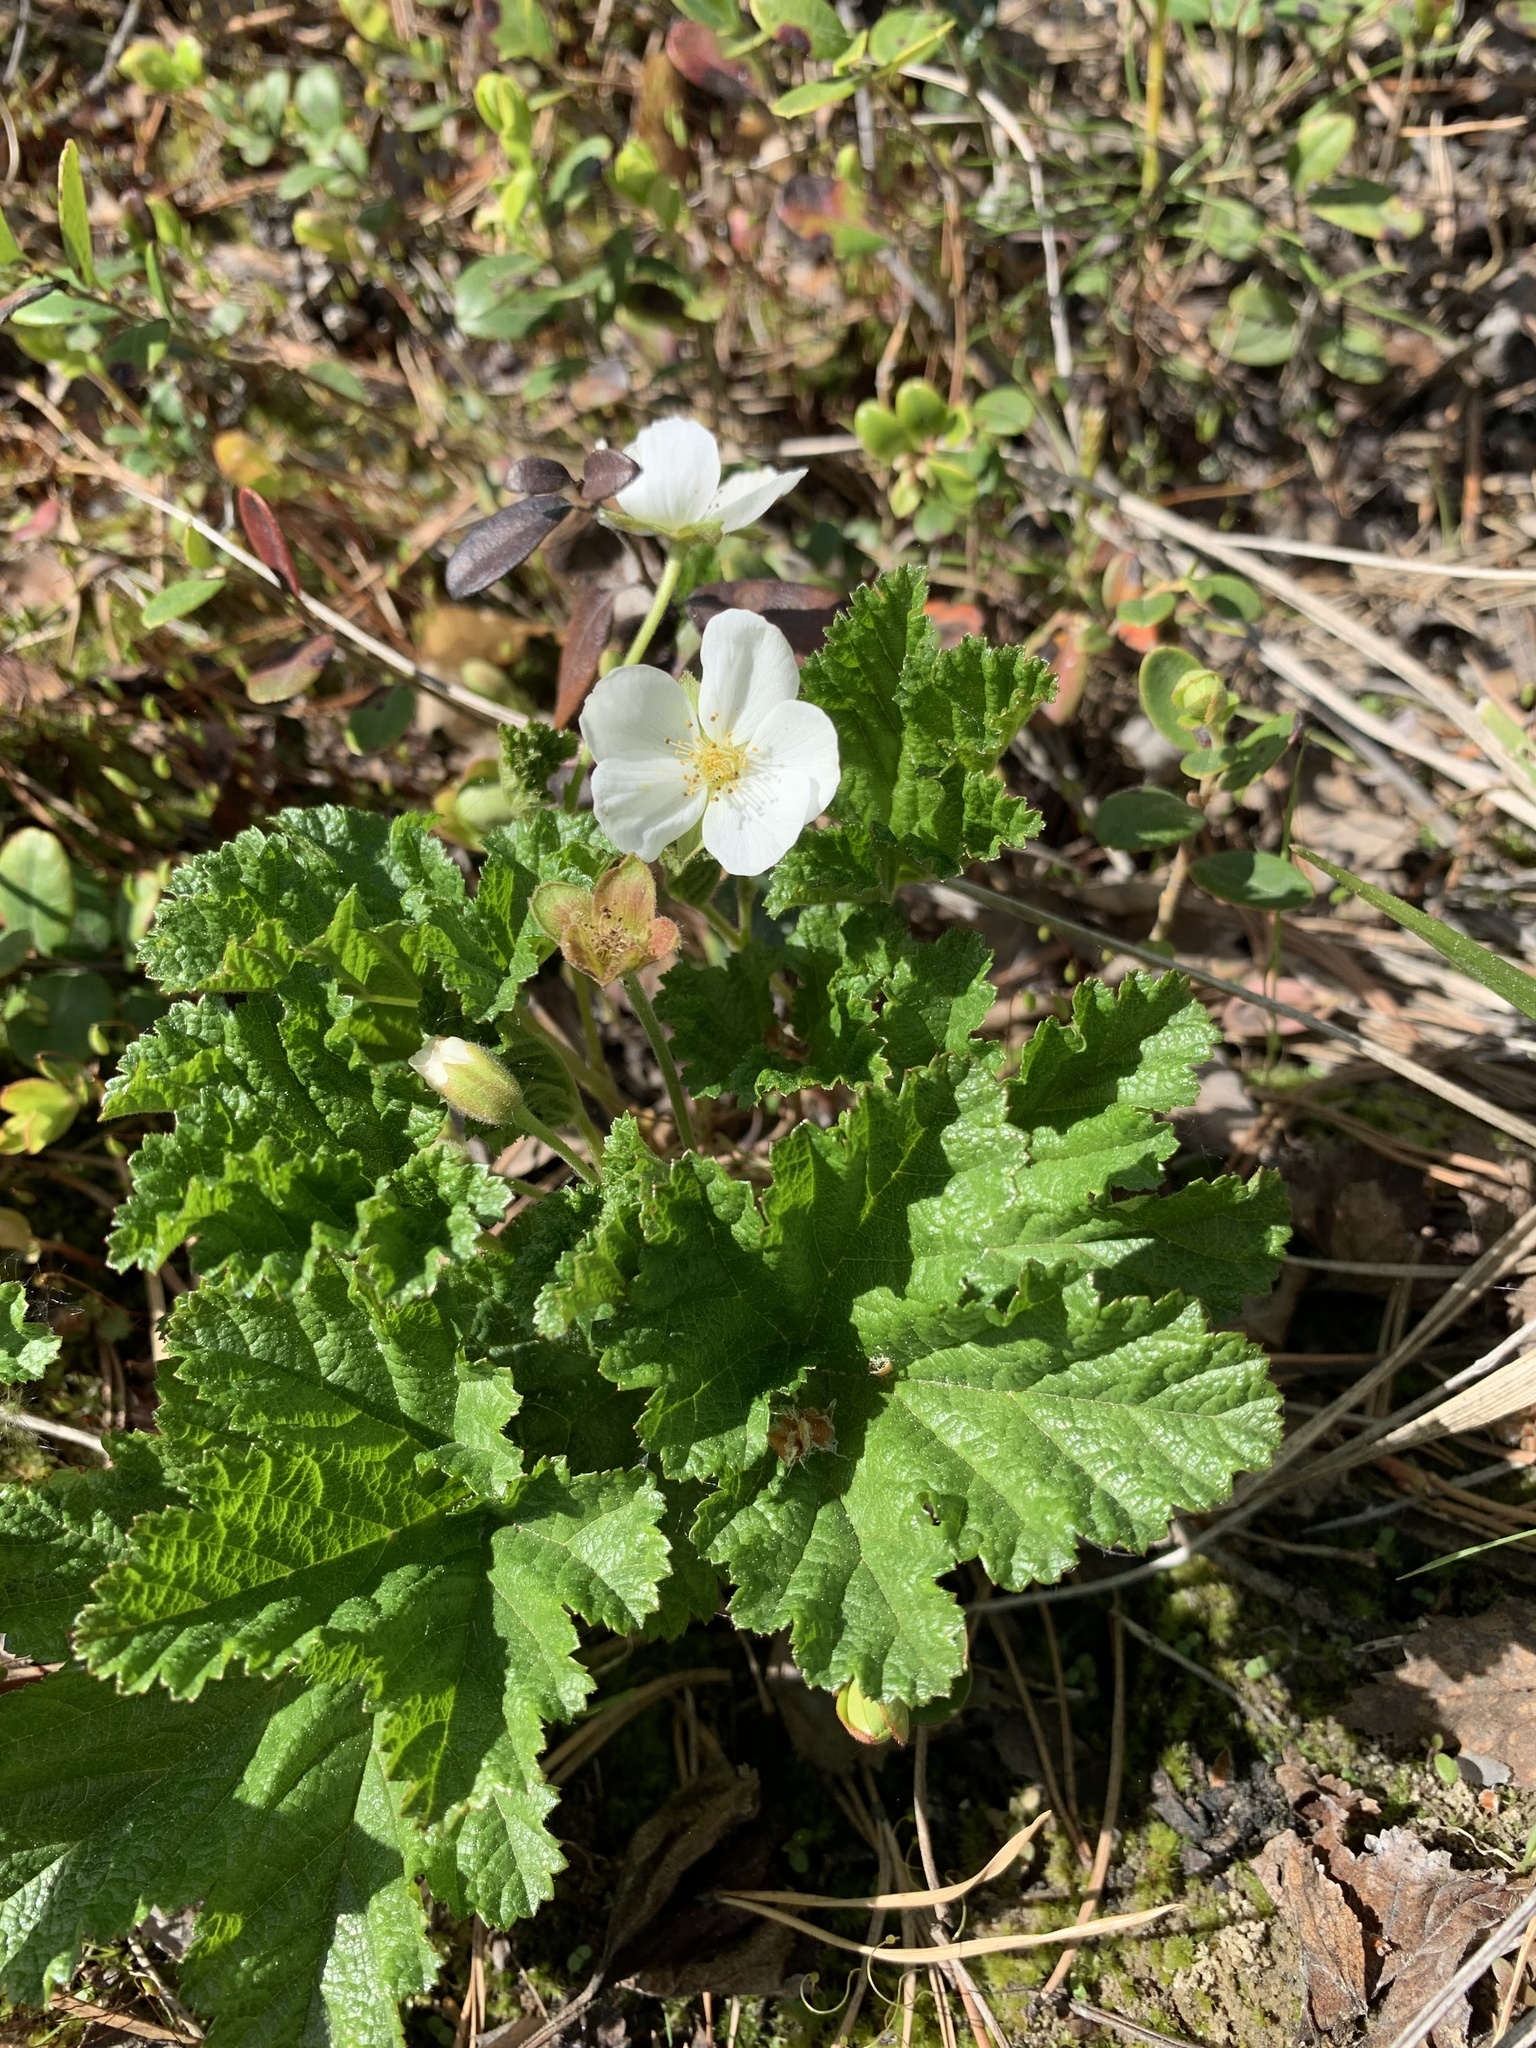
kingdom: Plantae
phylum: Tracheophyta
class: Magnoliopsida
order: Rosales
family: Rosaceae
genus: Rubus
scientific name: Rubus chamaemorus
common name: Cloudberry
